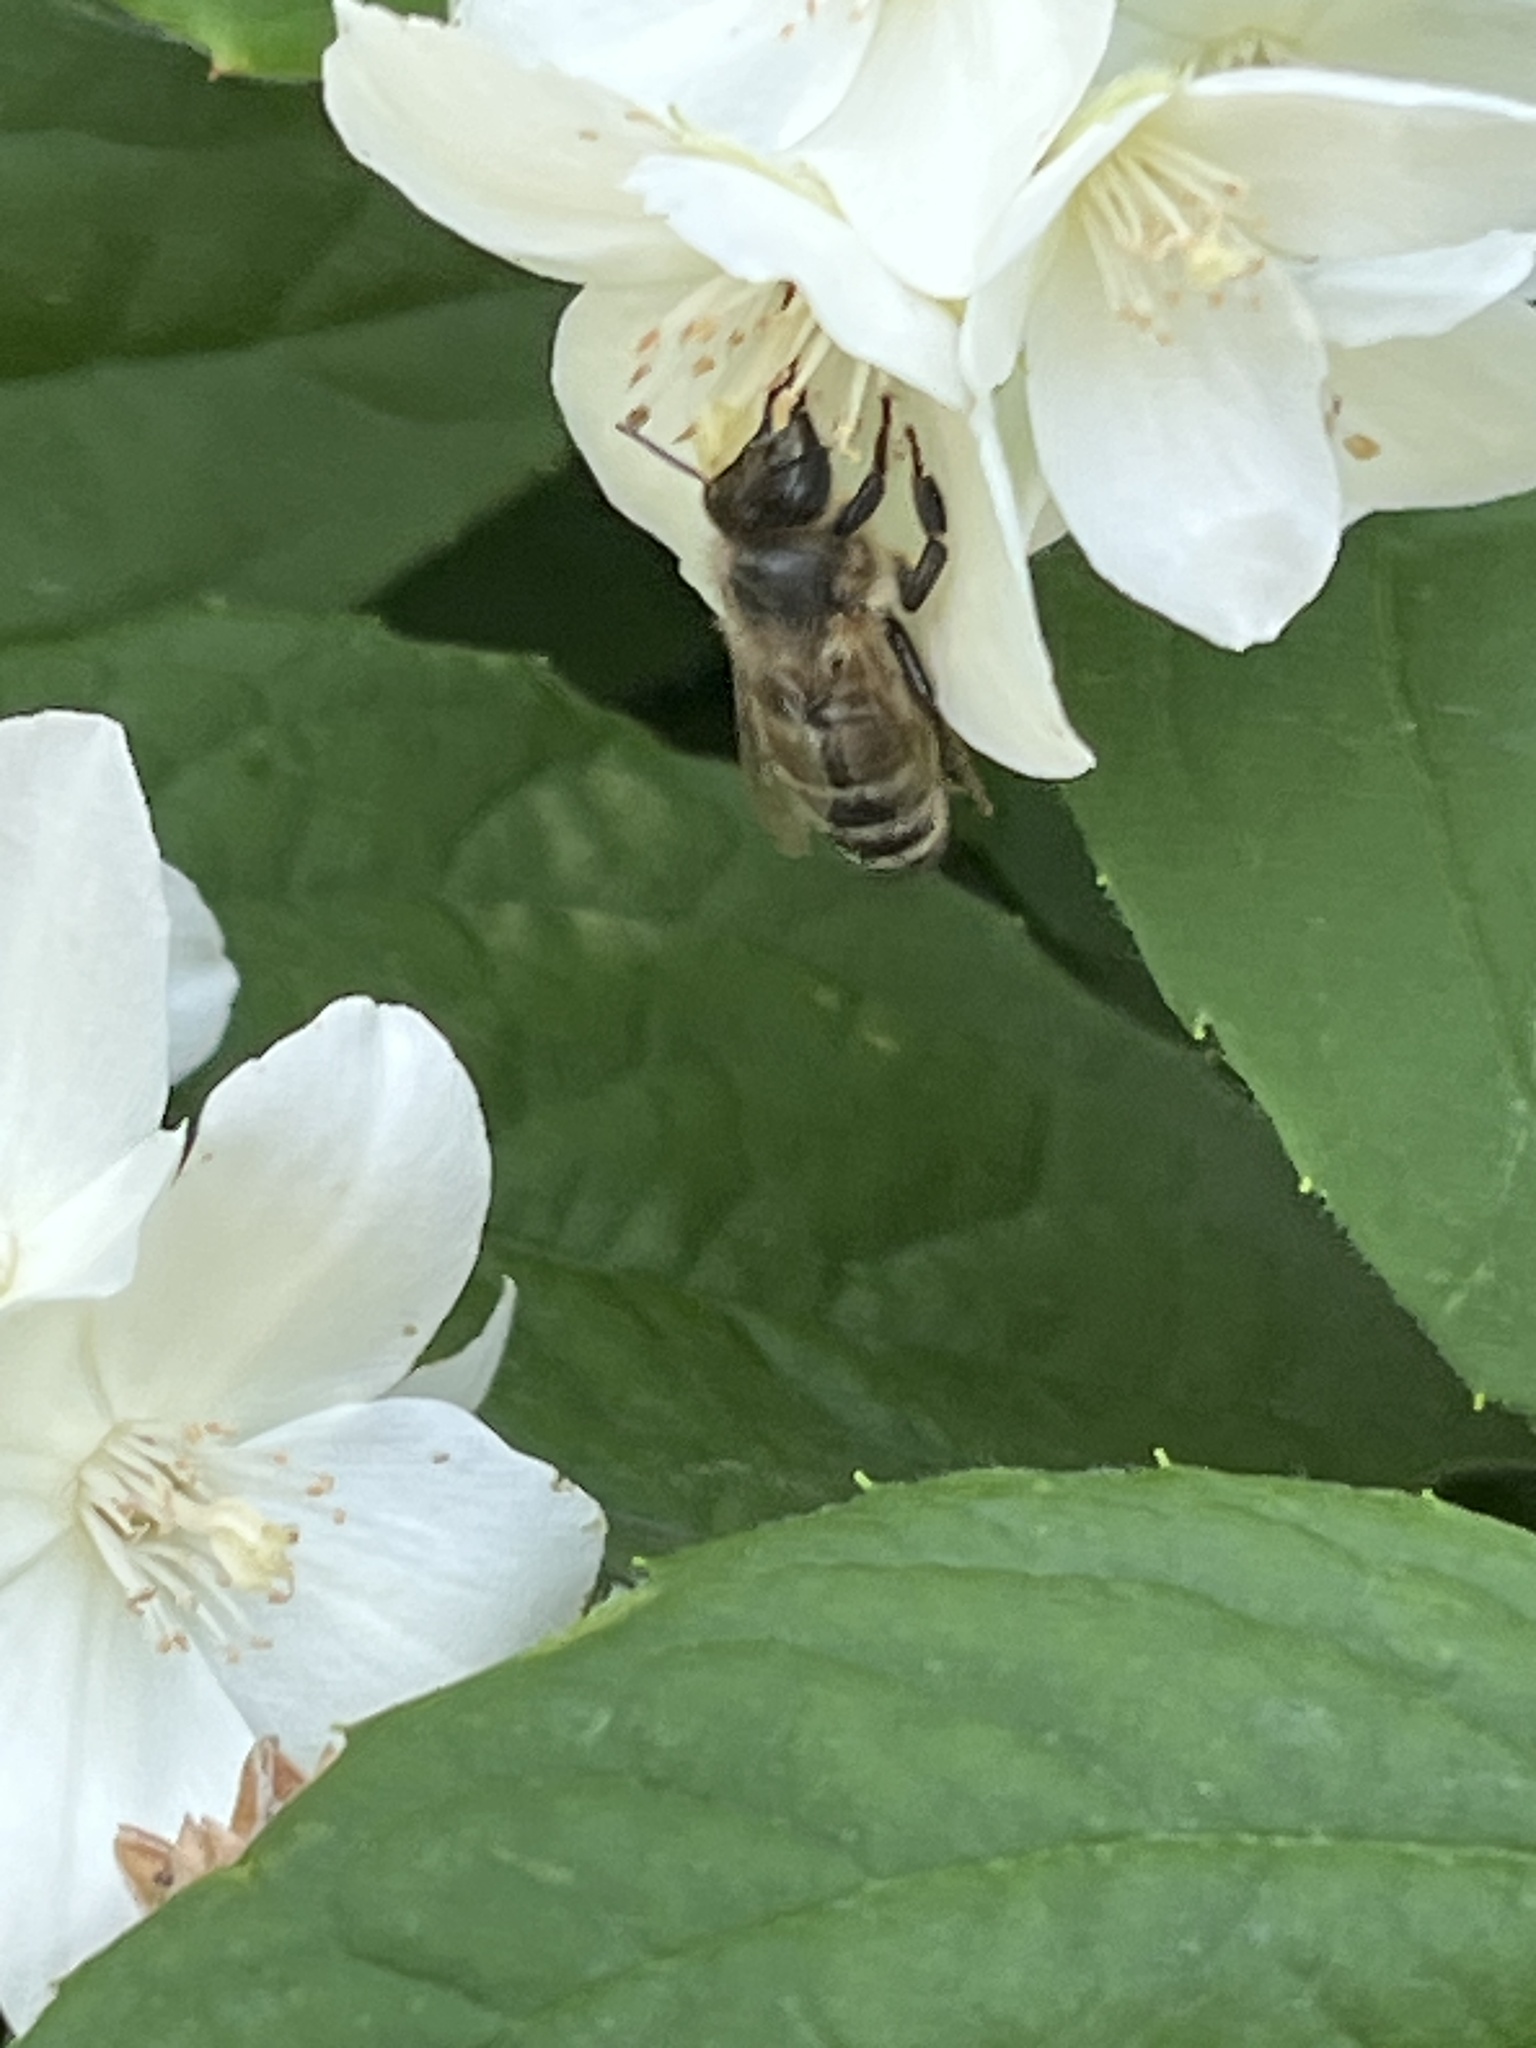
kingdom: Animalia
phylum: Arthropoda
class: Insecta
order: Hymenoptera
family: Apidae
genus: Apis
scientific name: Apis mellifera
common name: Honey bee
